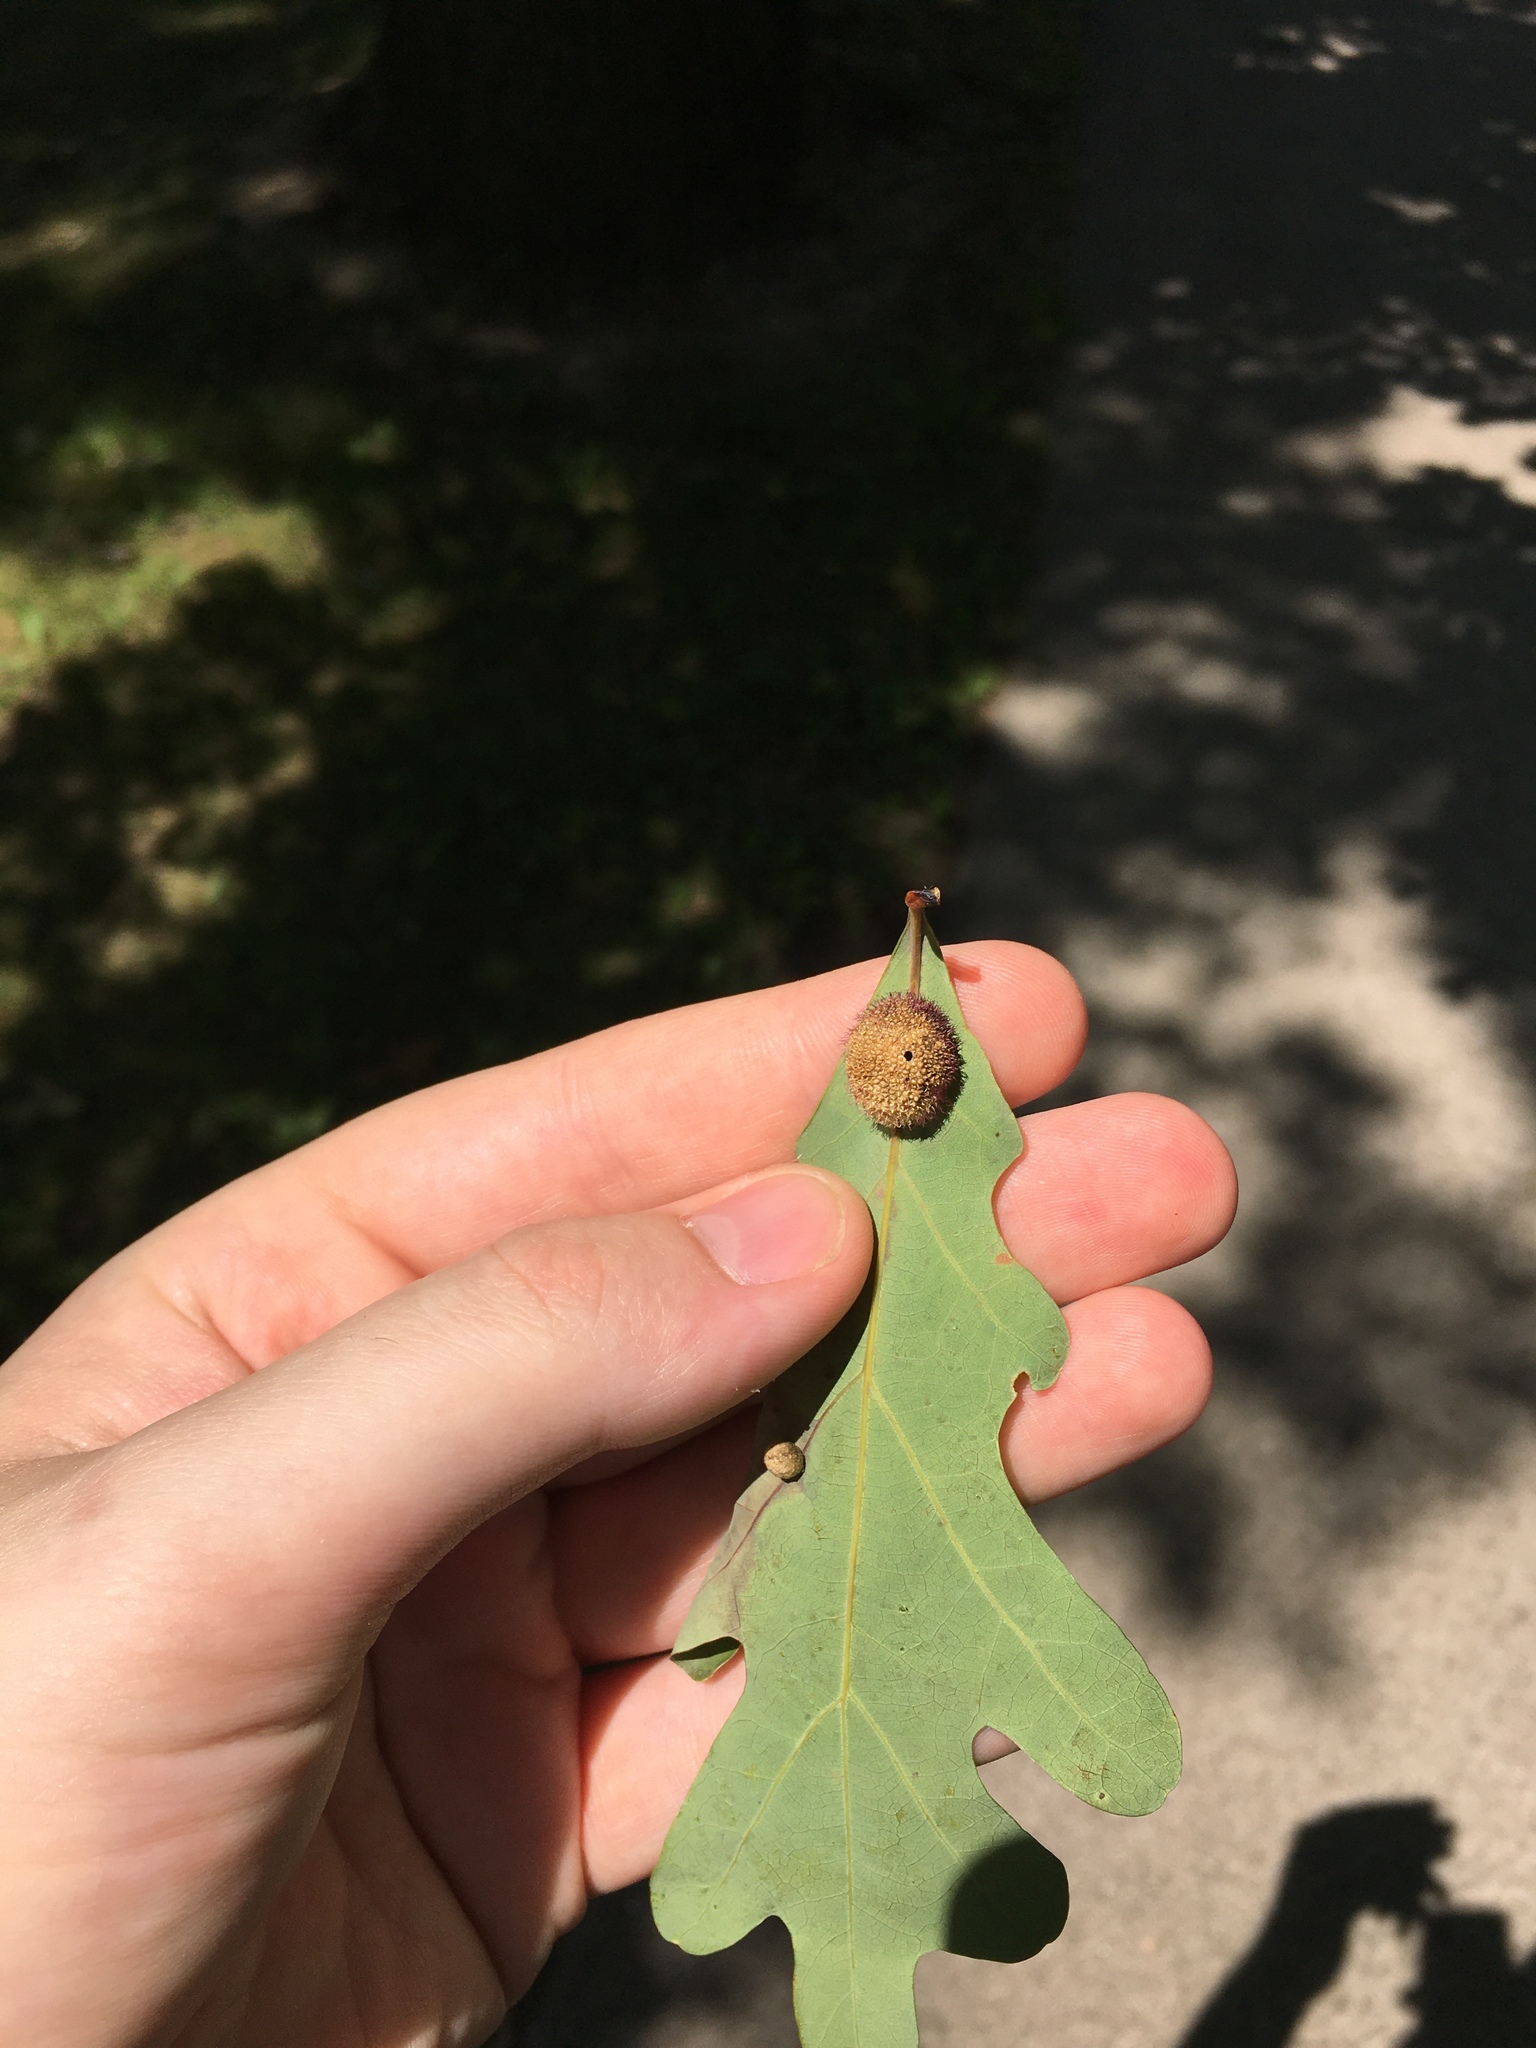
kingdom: Animalia
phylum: Arthropoda
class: Insecta
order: Hymenoptera
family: Cynipidae
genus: Acraspis
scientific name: Acraspis erinacei
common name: Hedgehog gall wasp
